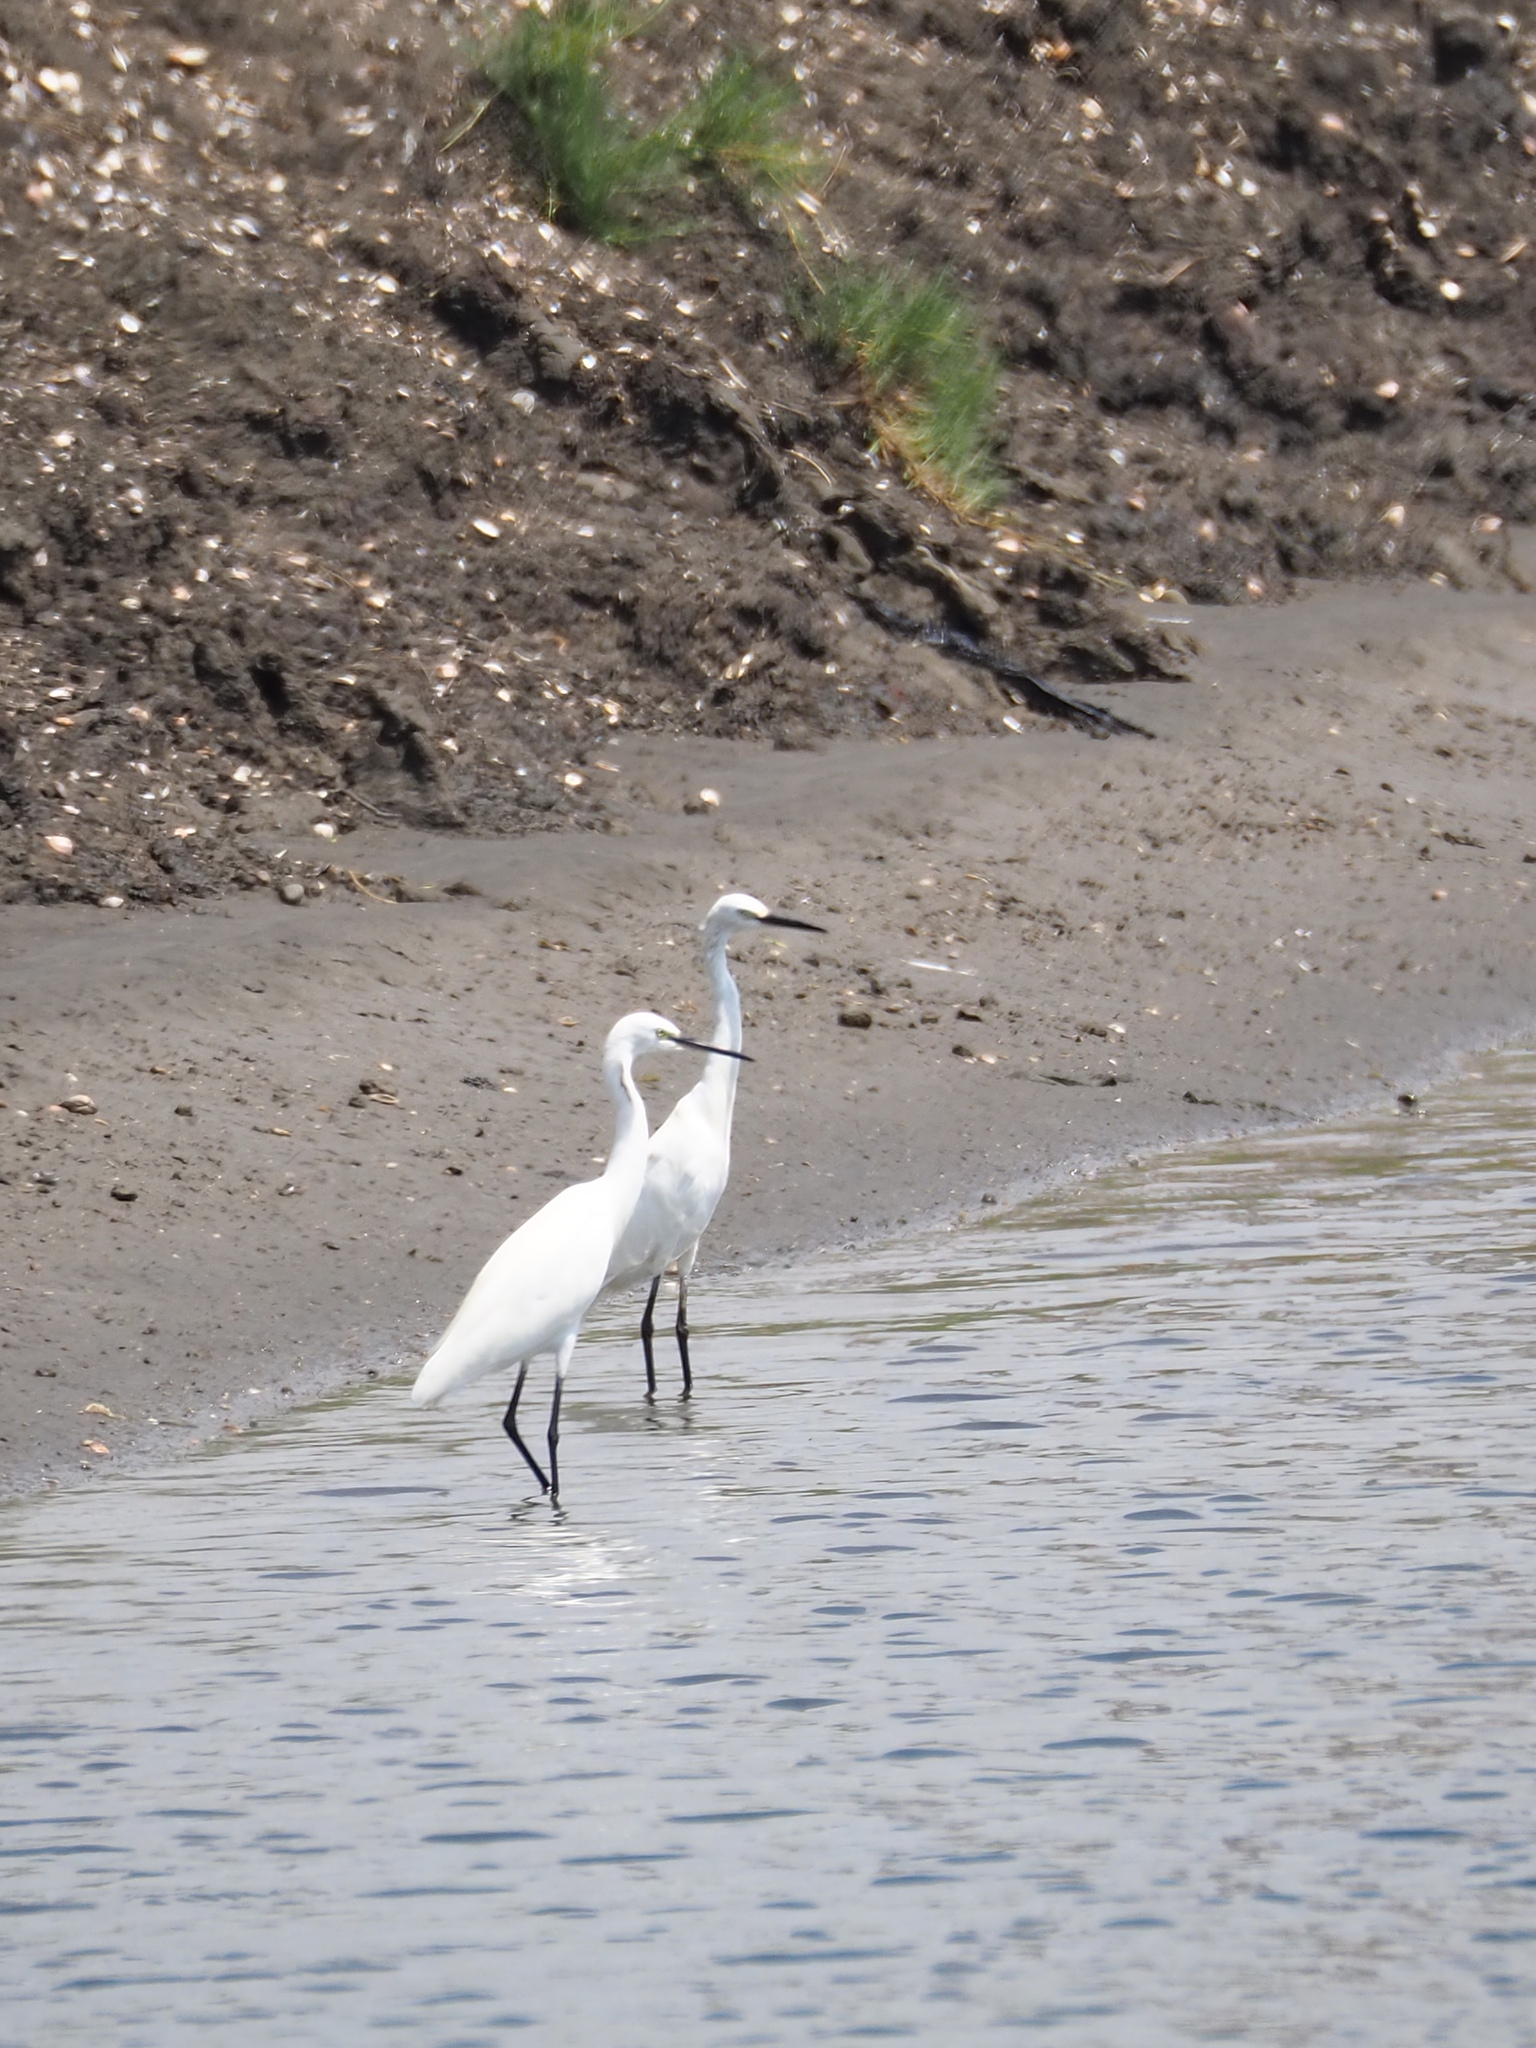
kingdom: Animalia
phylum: Chordata
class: Aves
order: Pelecaniformes
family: Ardeidae
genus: Egretta
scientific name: Egretta garzetta
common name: Little egret
